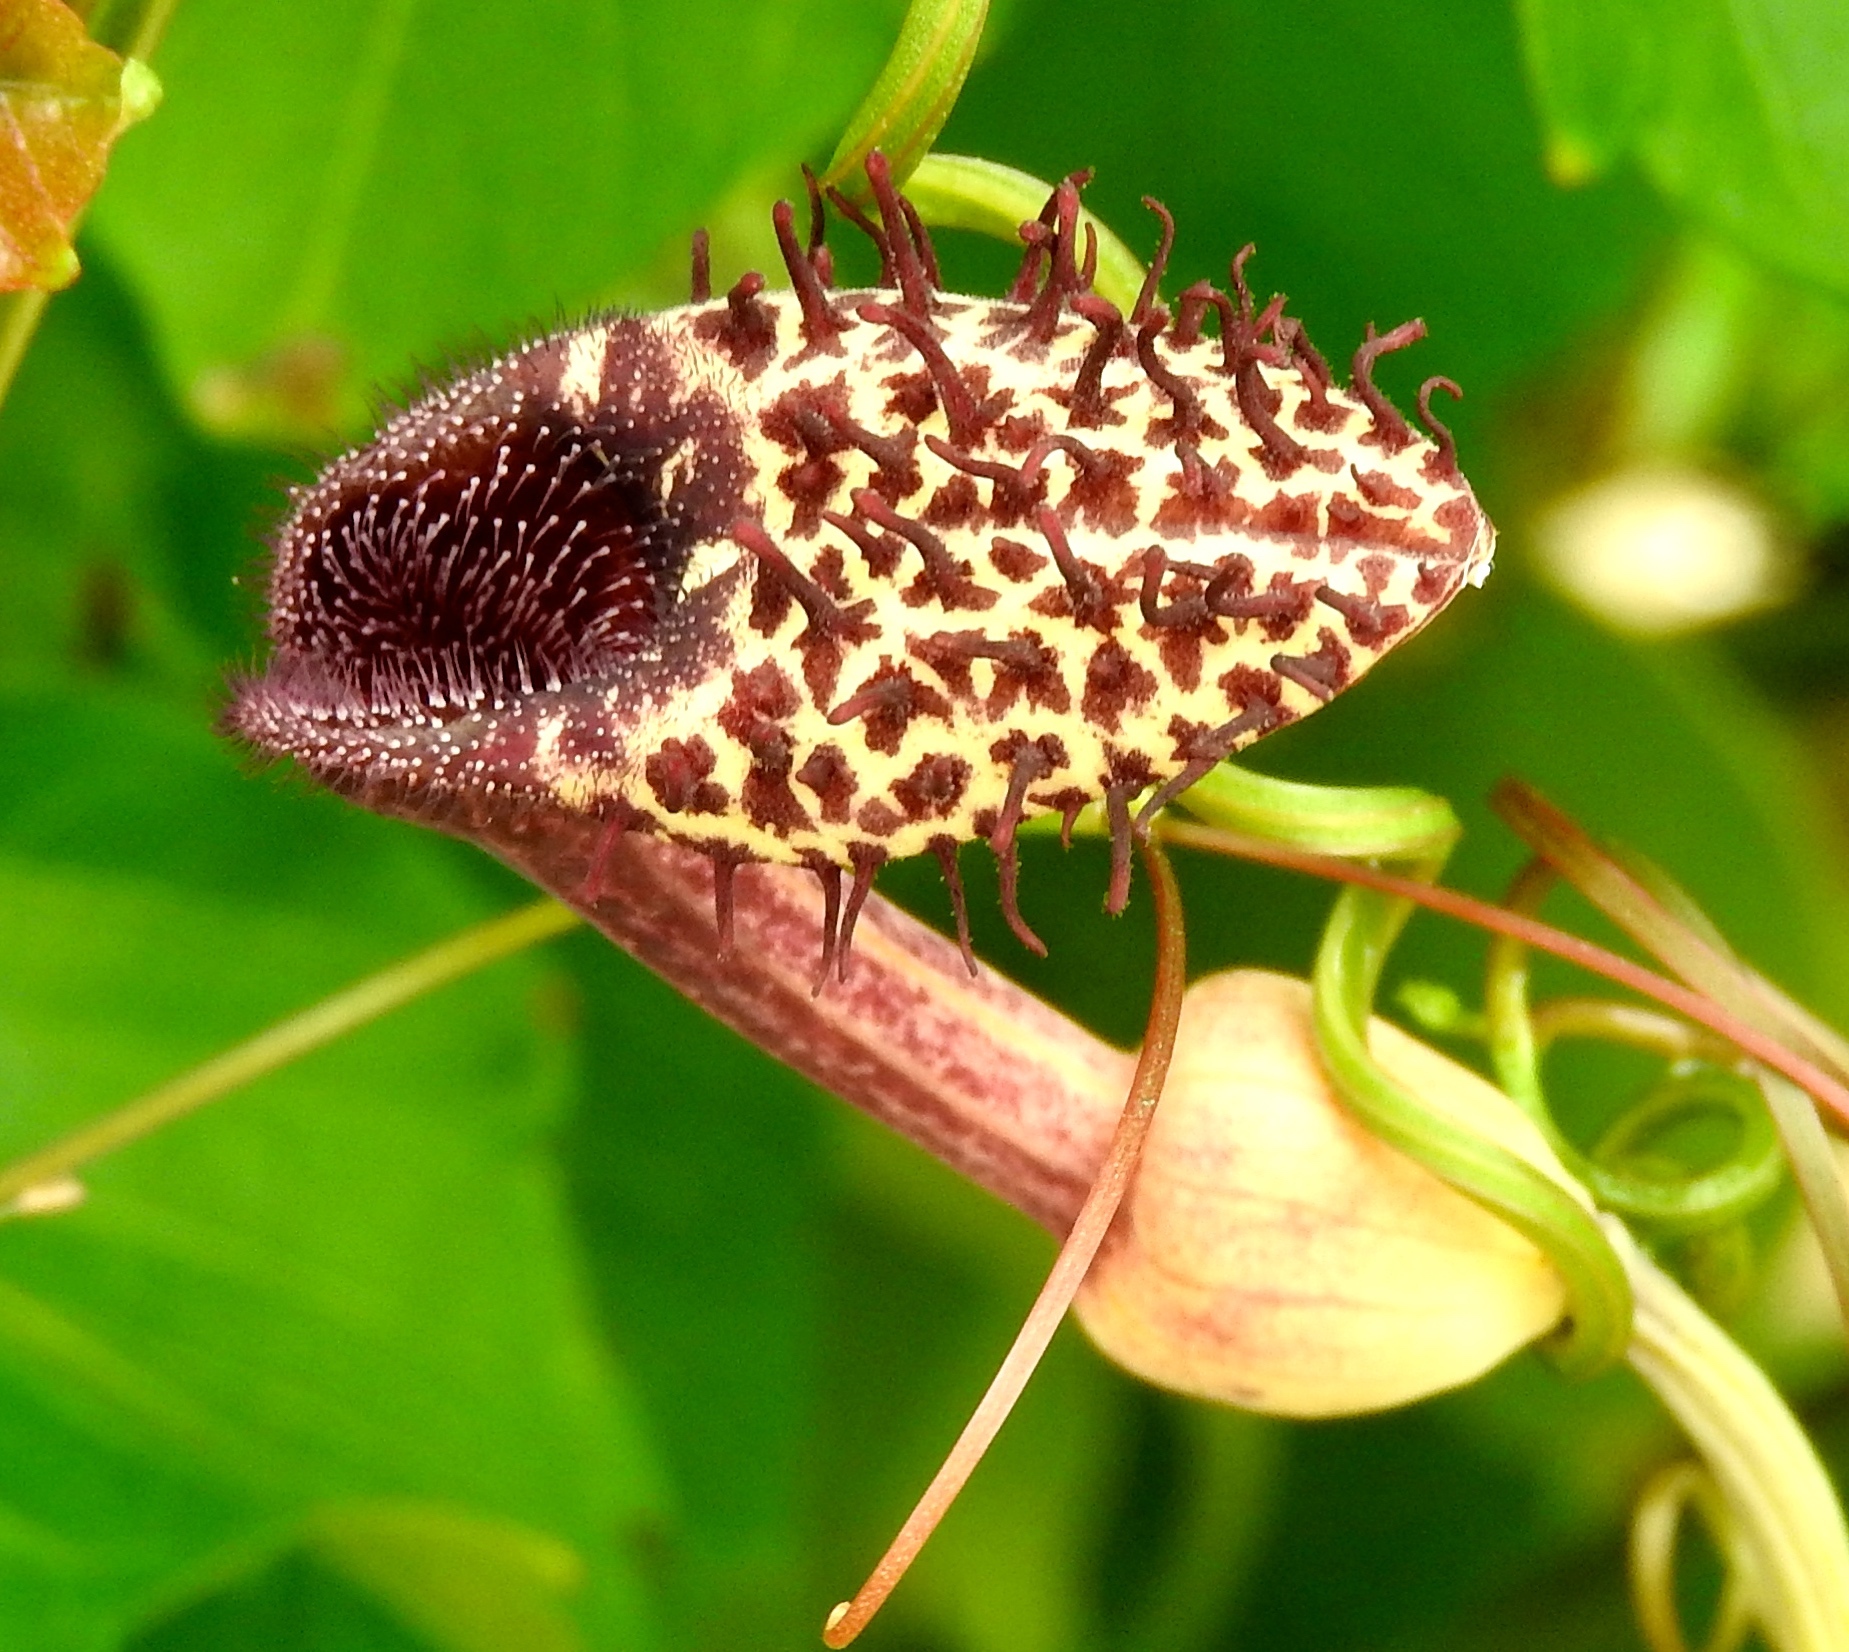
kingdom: Plantae
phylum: Tracheophyta
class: Magnoliopsida
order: Piperales
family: Aristolochiaceae
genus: Aristolochia
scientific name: Aristolochia taliscana
